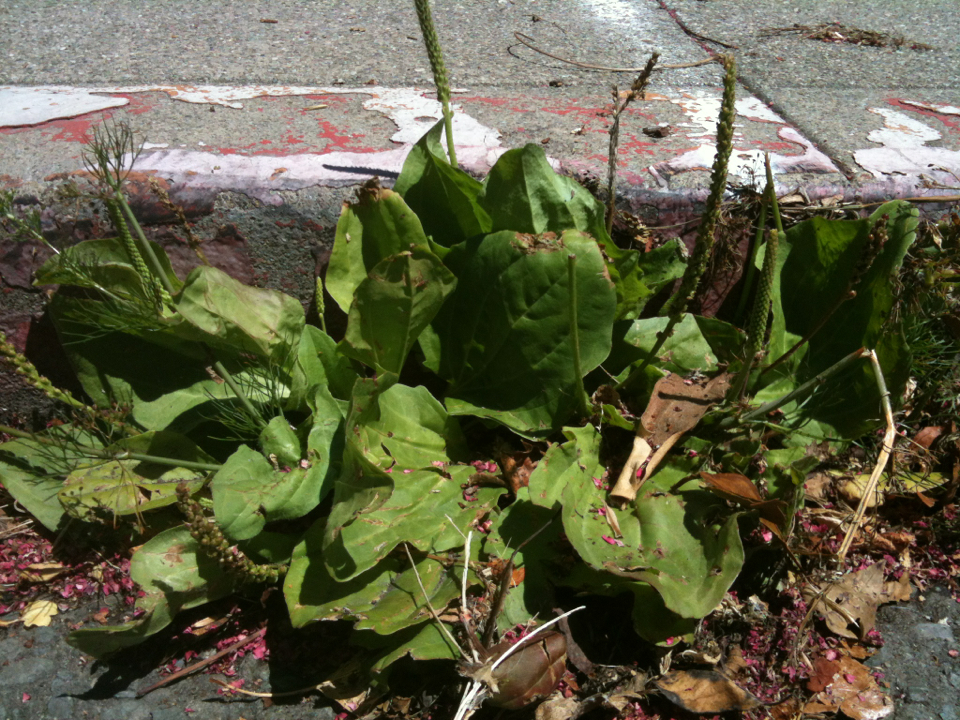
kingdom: Plantae
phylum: Tracheophyta
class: Magnoliopsida
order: Lamiales
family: Plantaginaceae
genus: Plantago
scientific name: Plantago major
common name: Common plantain
